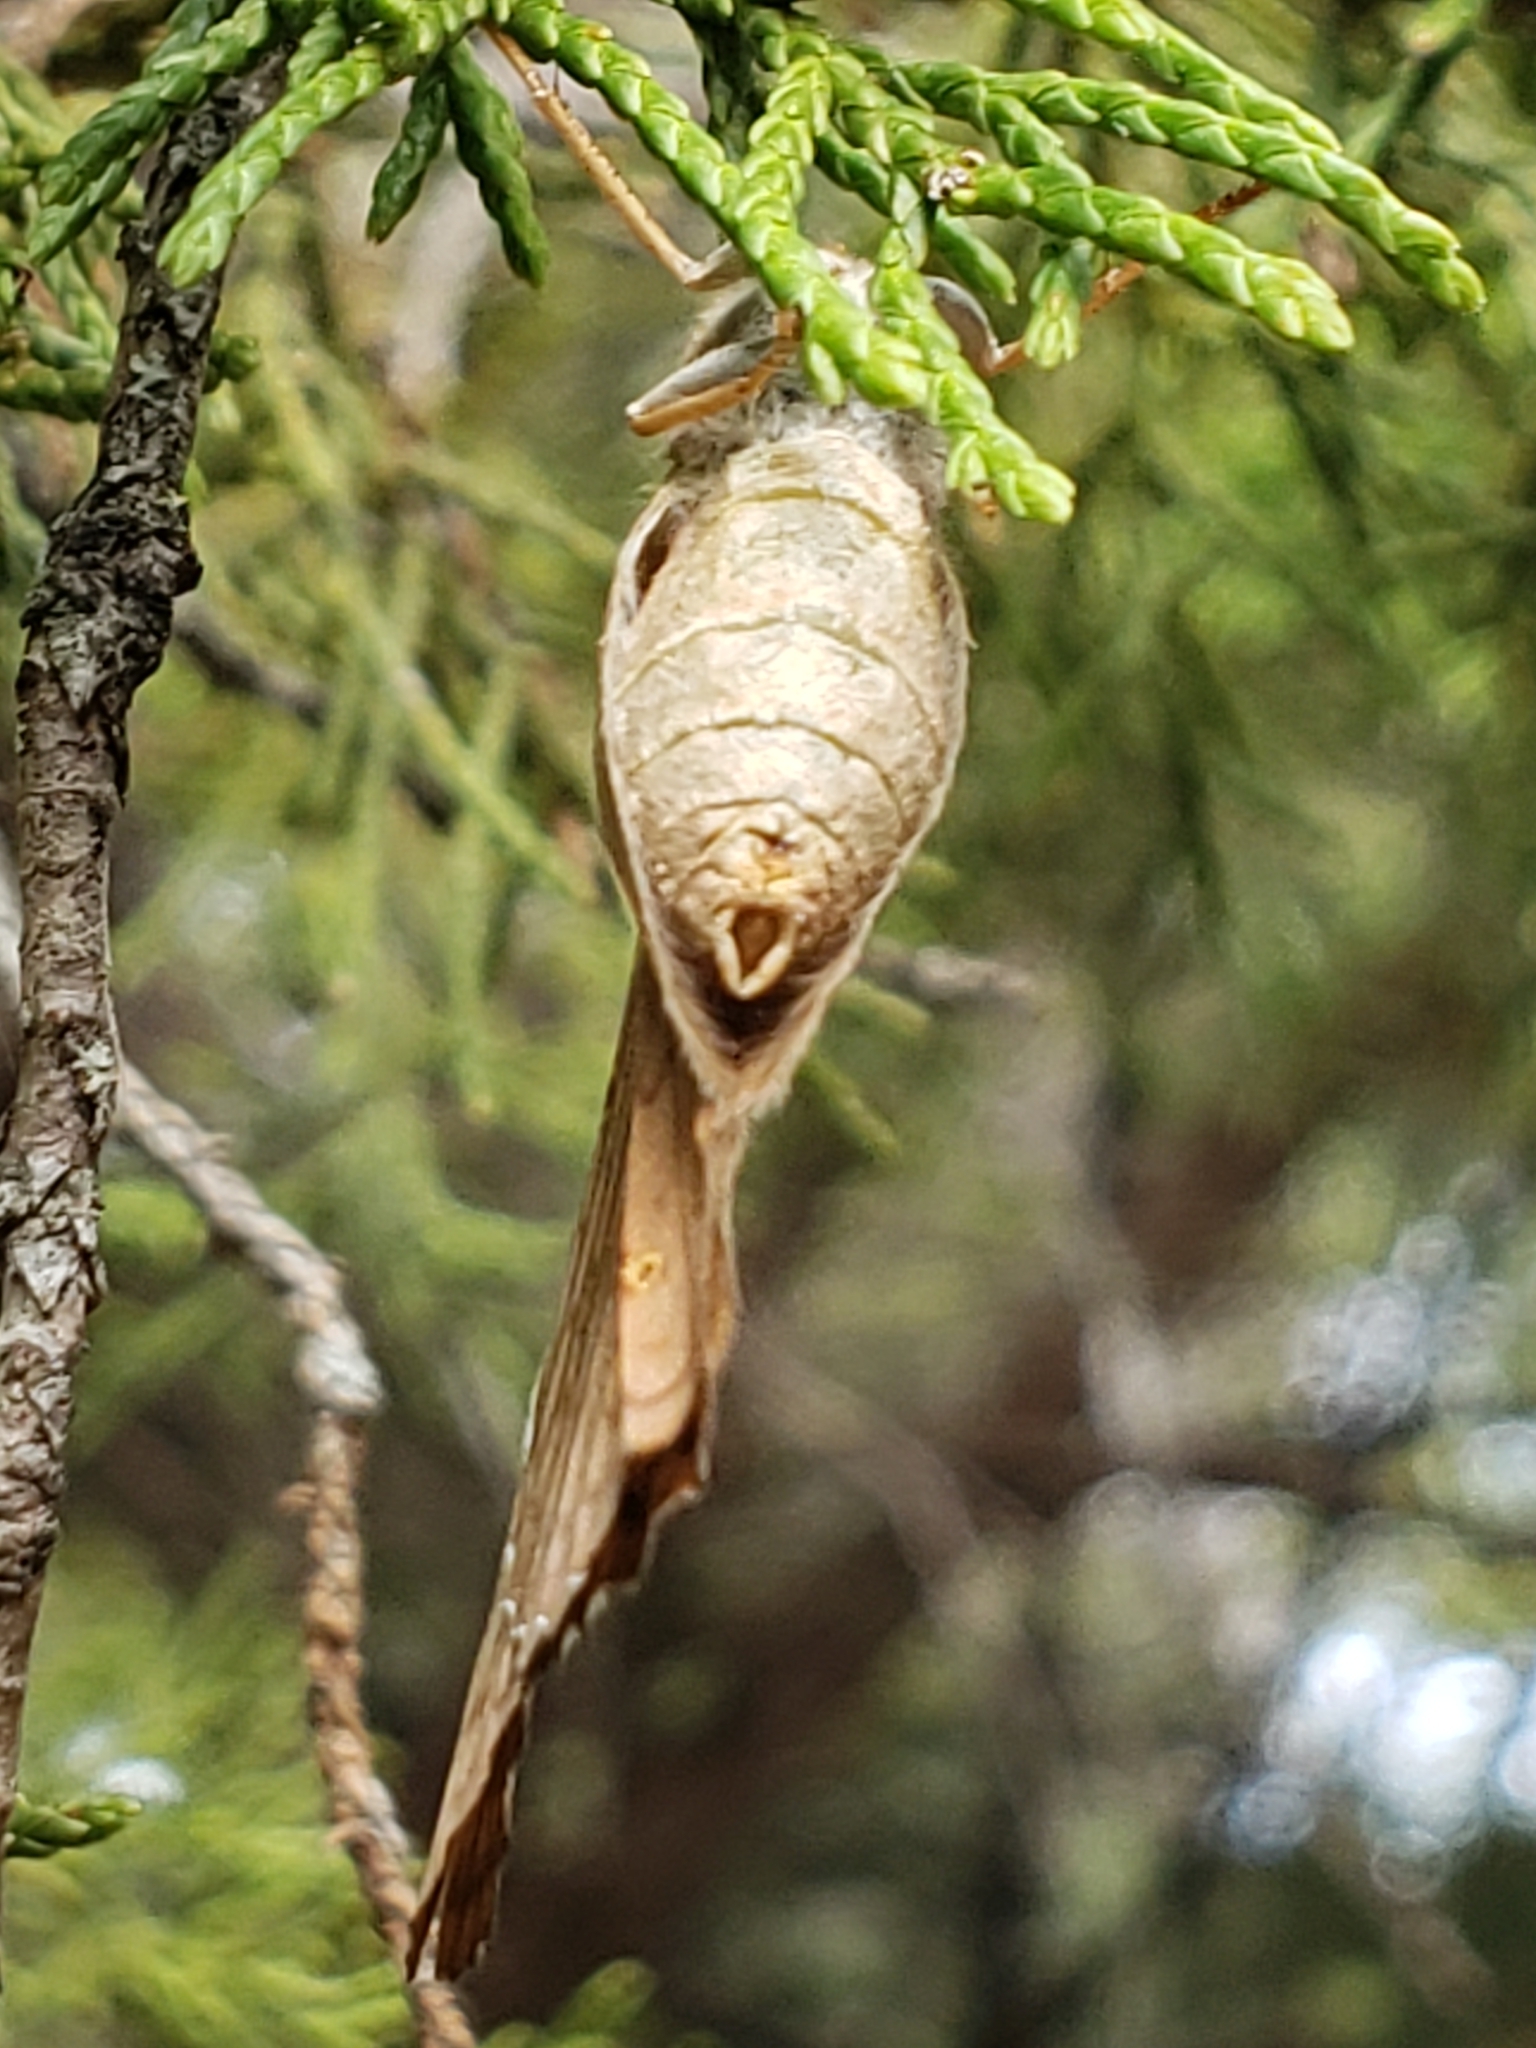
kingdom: Animalia
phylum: Arthropoda
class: Insecta
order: Lepidoptera
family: Nymphalidae
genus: Asterocampa
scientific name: Asterocampa clyton
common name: Tawny emperor
